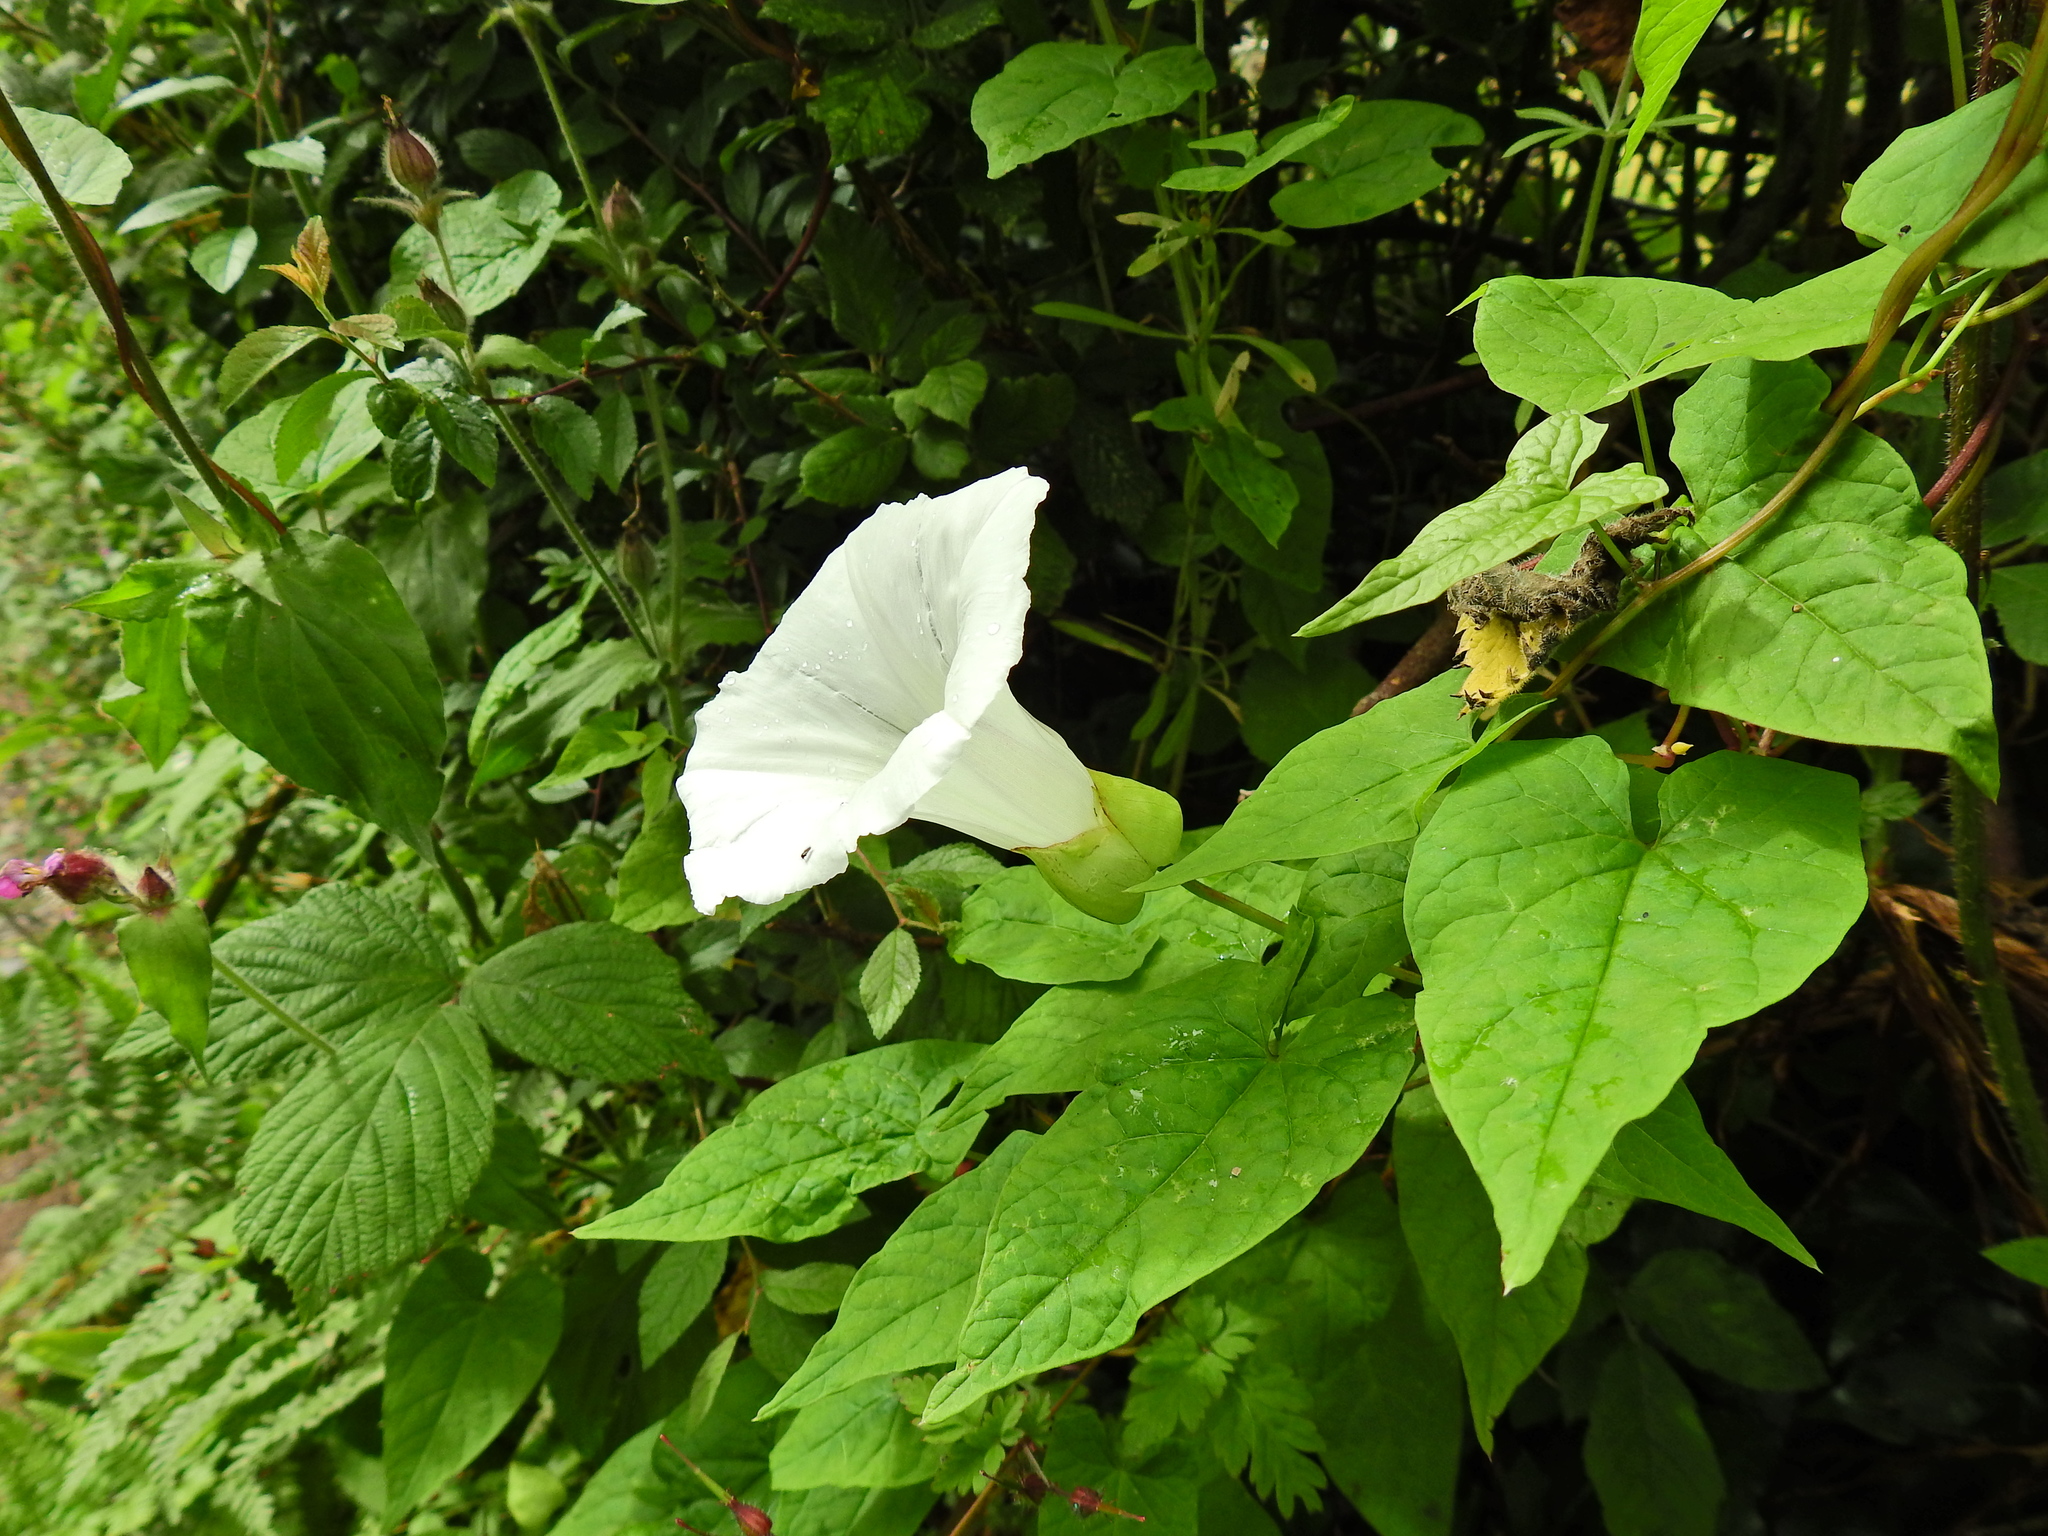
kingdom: Plantae
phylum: Tracheophyta
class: Magnoliopsida
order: Solanales
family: Convolvulaceae
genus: Calystegia
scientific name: Calystegia silvatica
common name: Large bindweed
